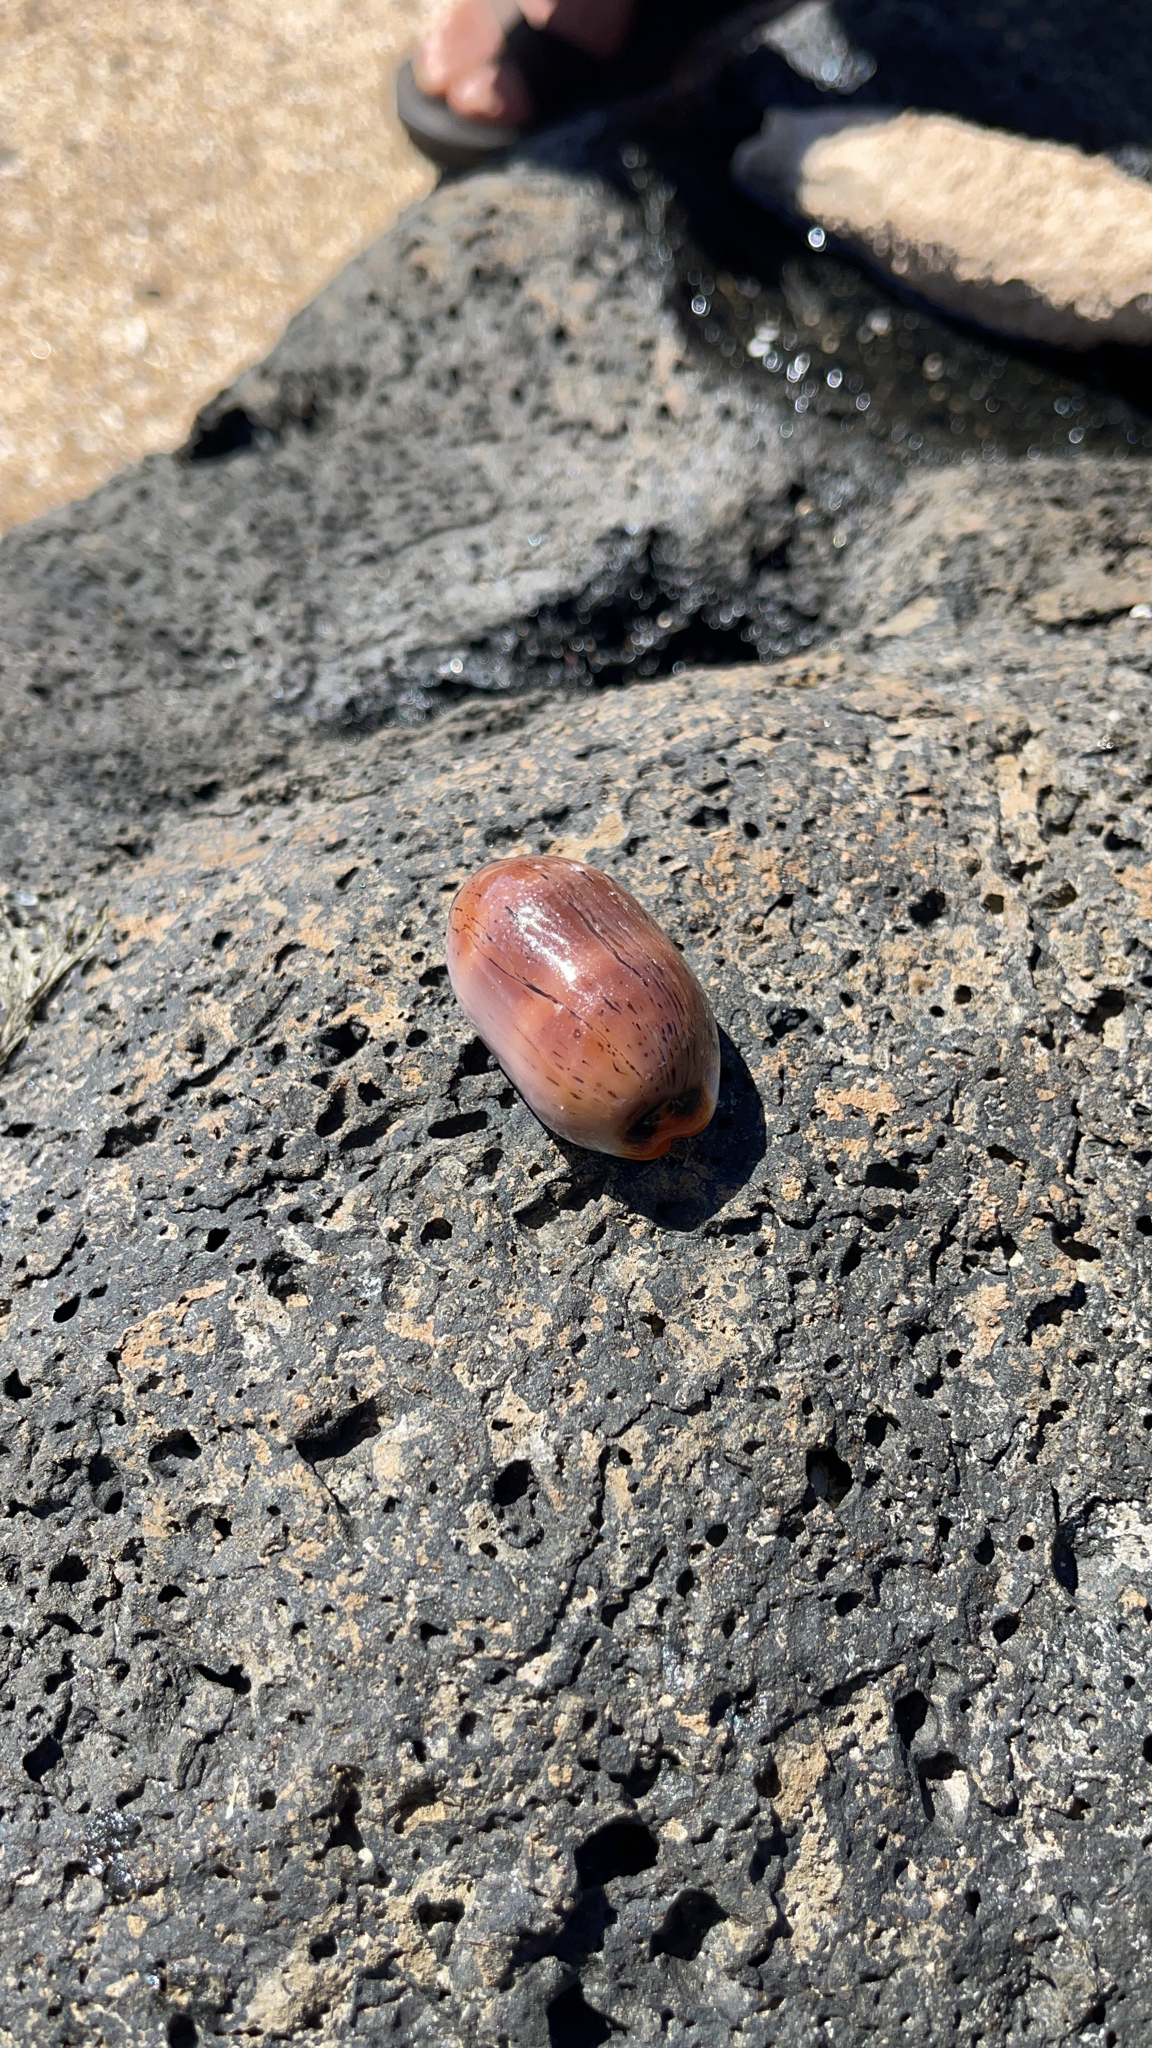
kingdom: Animalia
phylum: Mollusca
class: Gastropoda
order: Littorinimorpha
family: Cypraeidae
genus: Luria
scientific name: Luria isabella
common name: Isabell cowry
